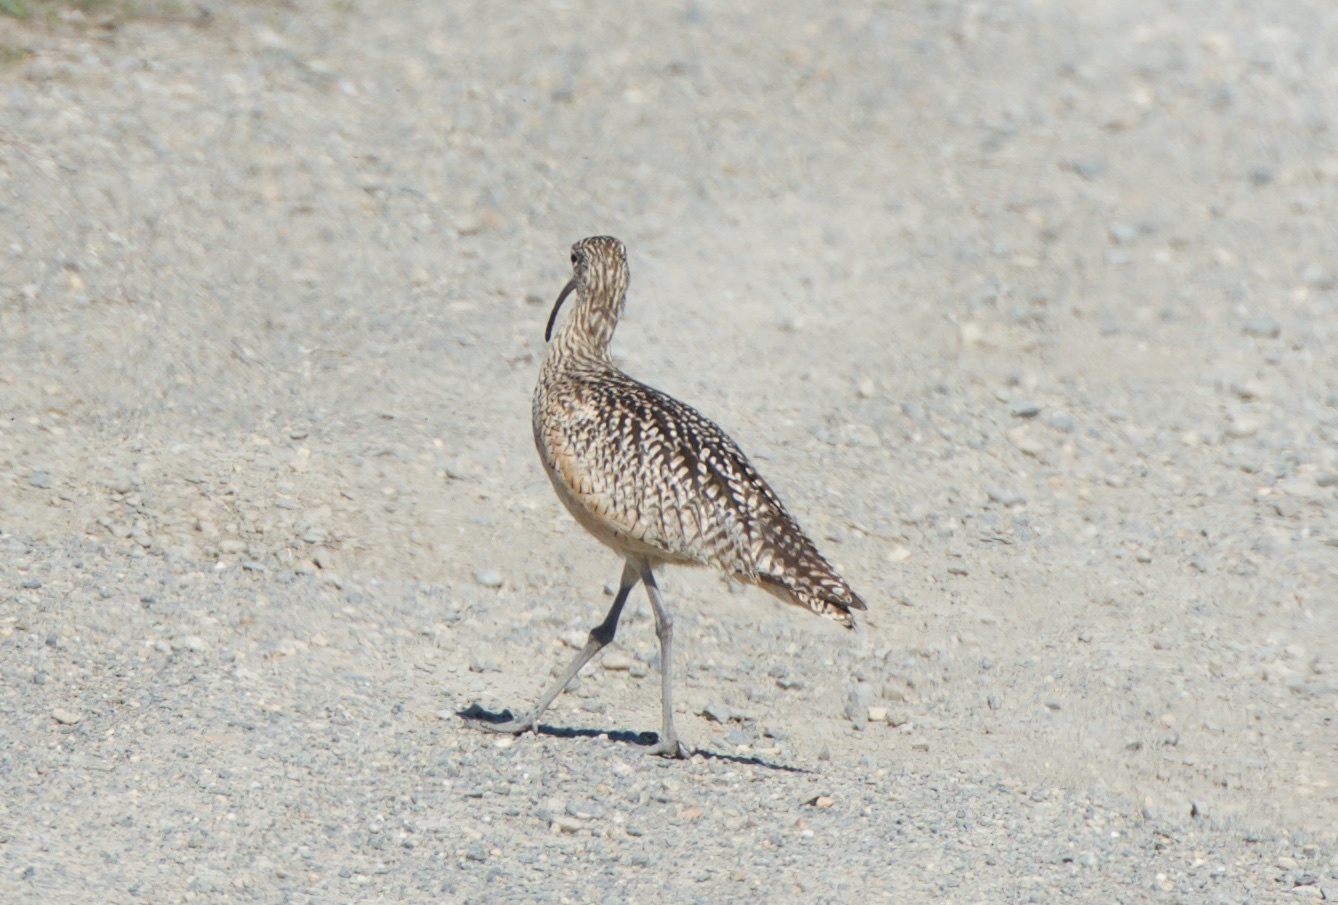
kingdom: Animalia
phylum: Chordata
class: Aves
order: Charadriiformes
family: Scolopacidae
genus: Numenius
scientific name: Numenius americanus
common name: Long-billed curlew
